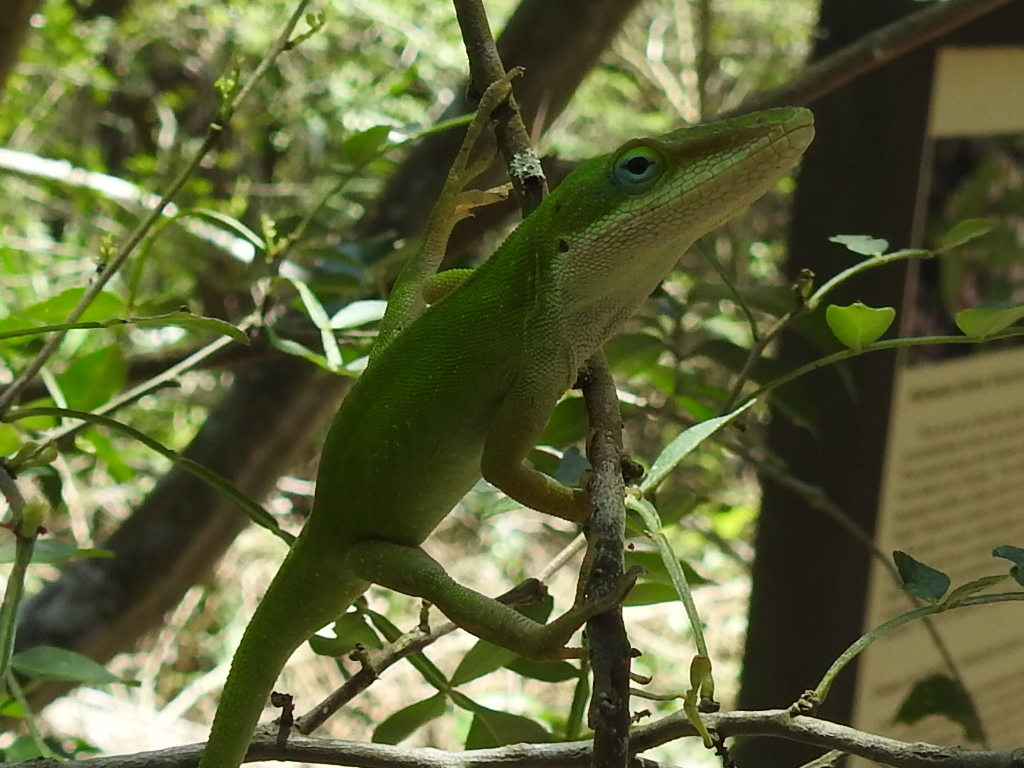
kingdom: Animalia
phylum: Chordata
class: Squamata
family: Dactyloidae
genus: Anolis
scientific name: Anolis carolinensis
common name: Green anole
